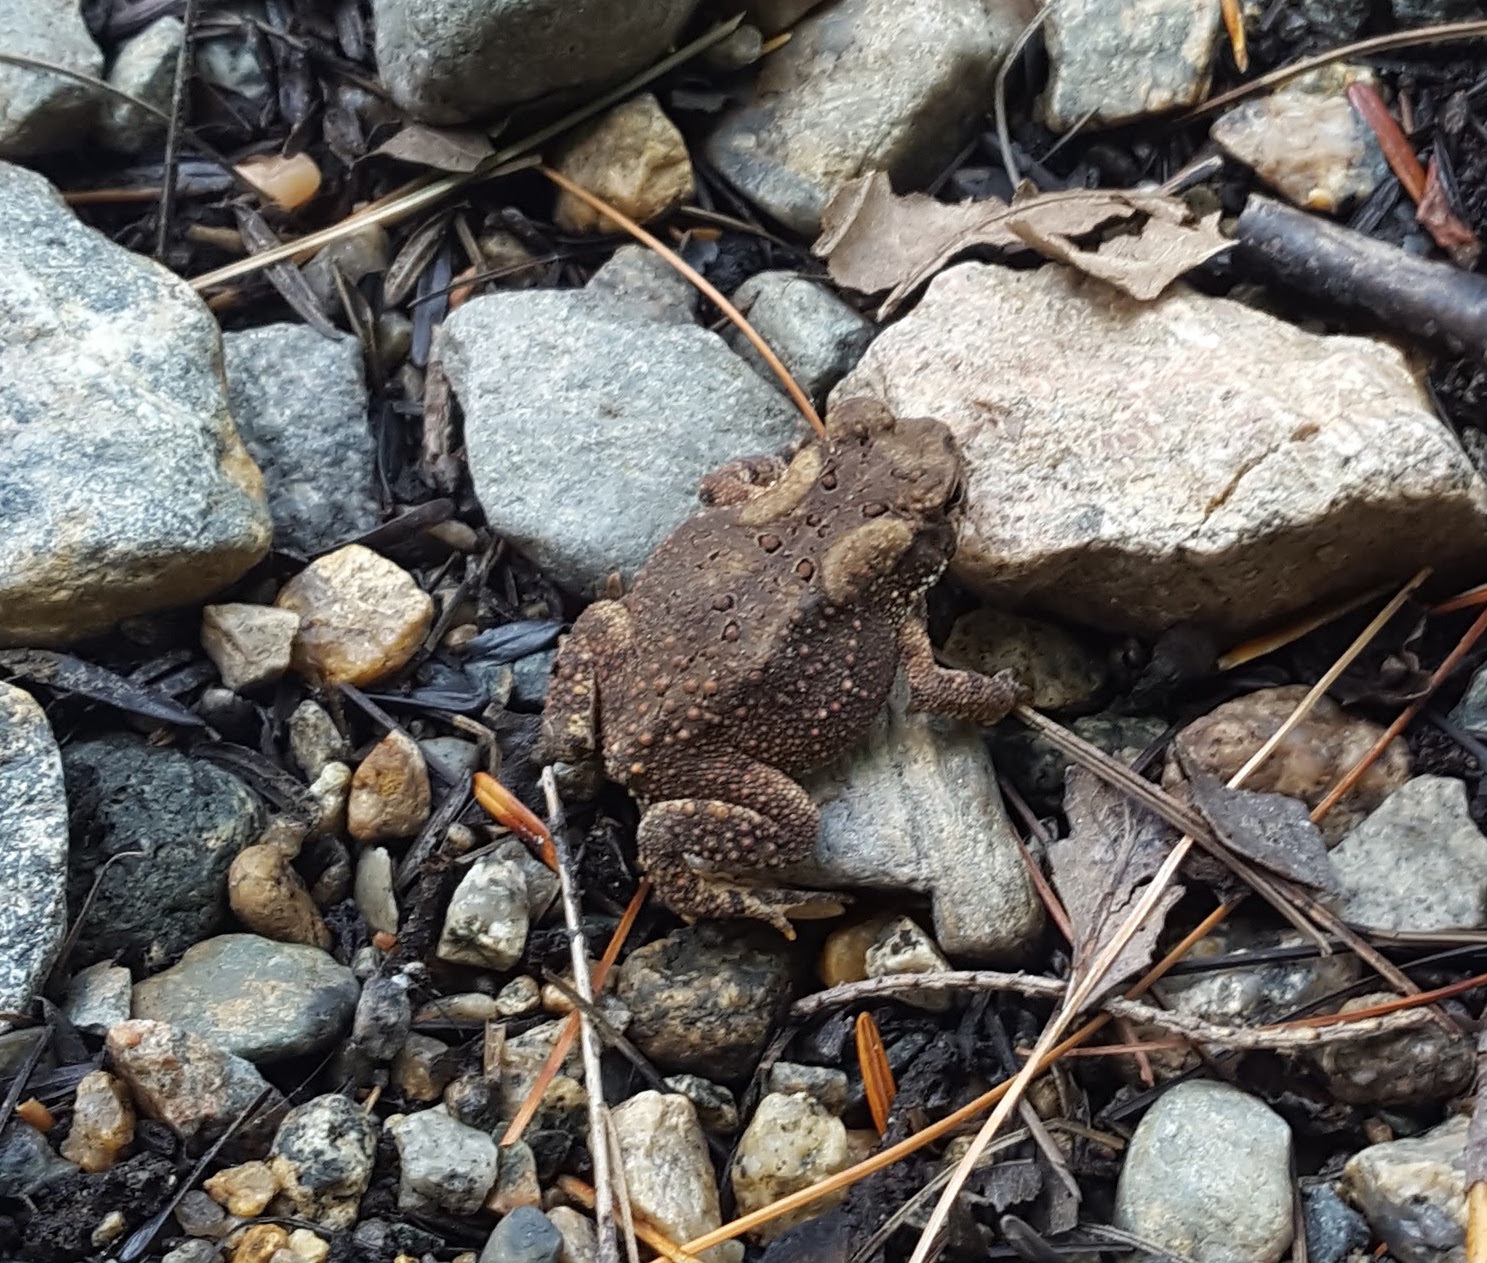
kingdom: Animalia
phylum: Chordata
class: Amphibia
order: Anura
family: Bufonidae
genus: Anaxyrus
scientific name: Anaxyrus americanus
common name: American toad
